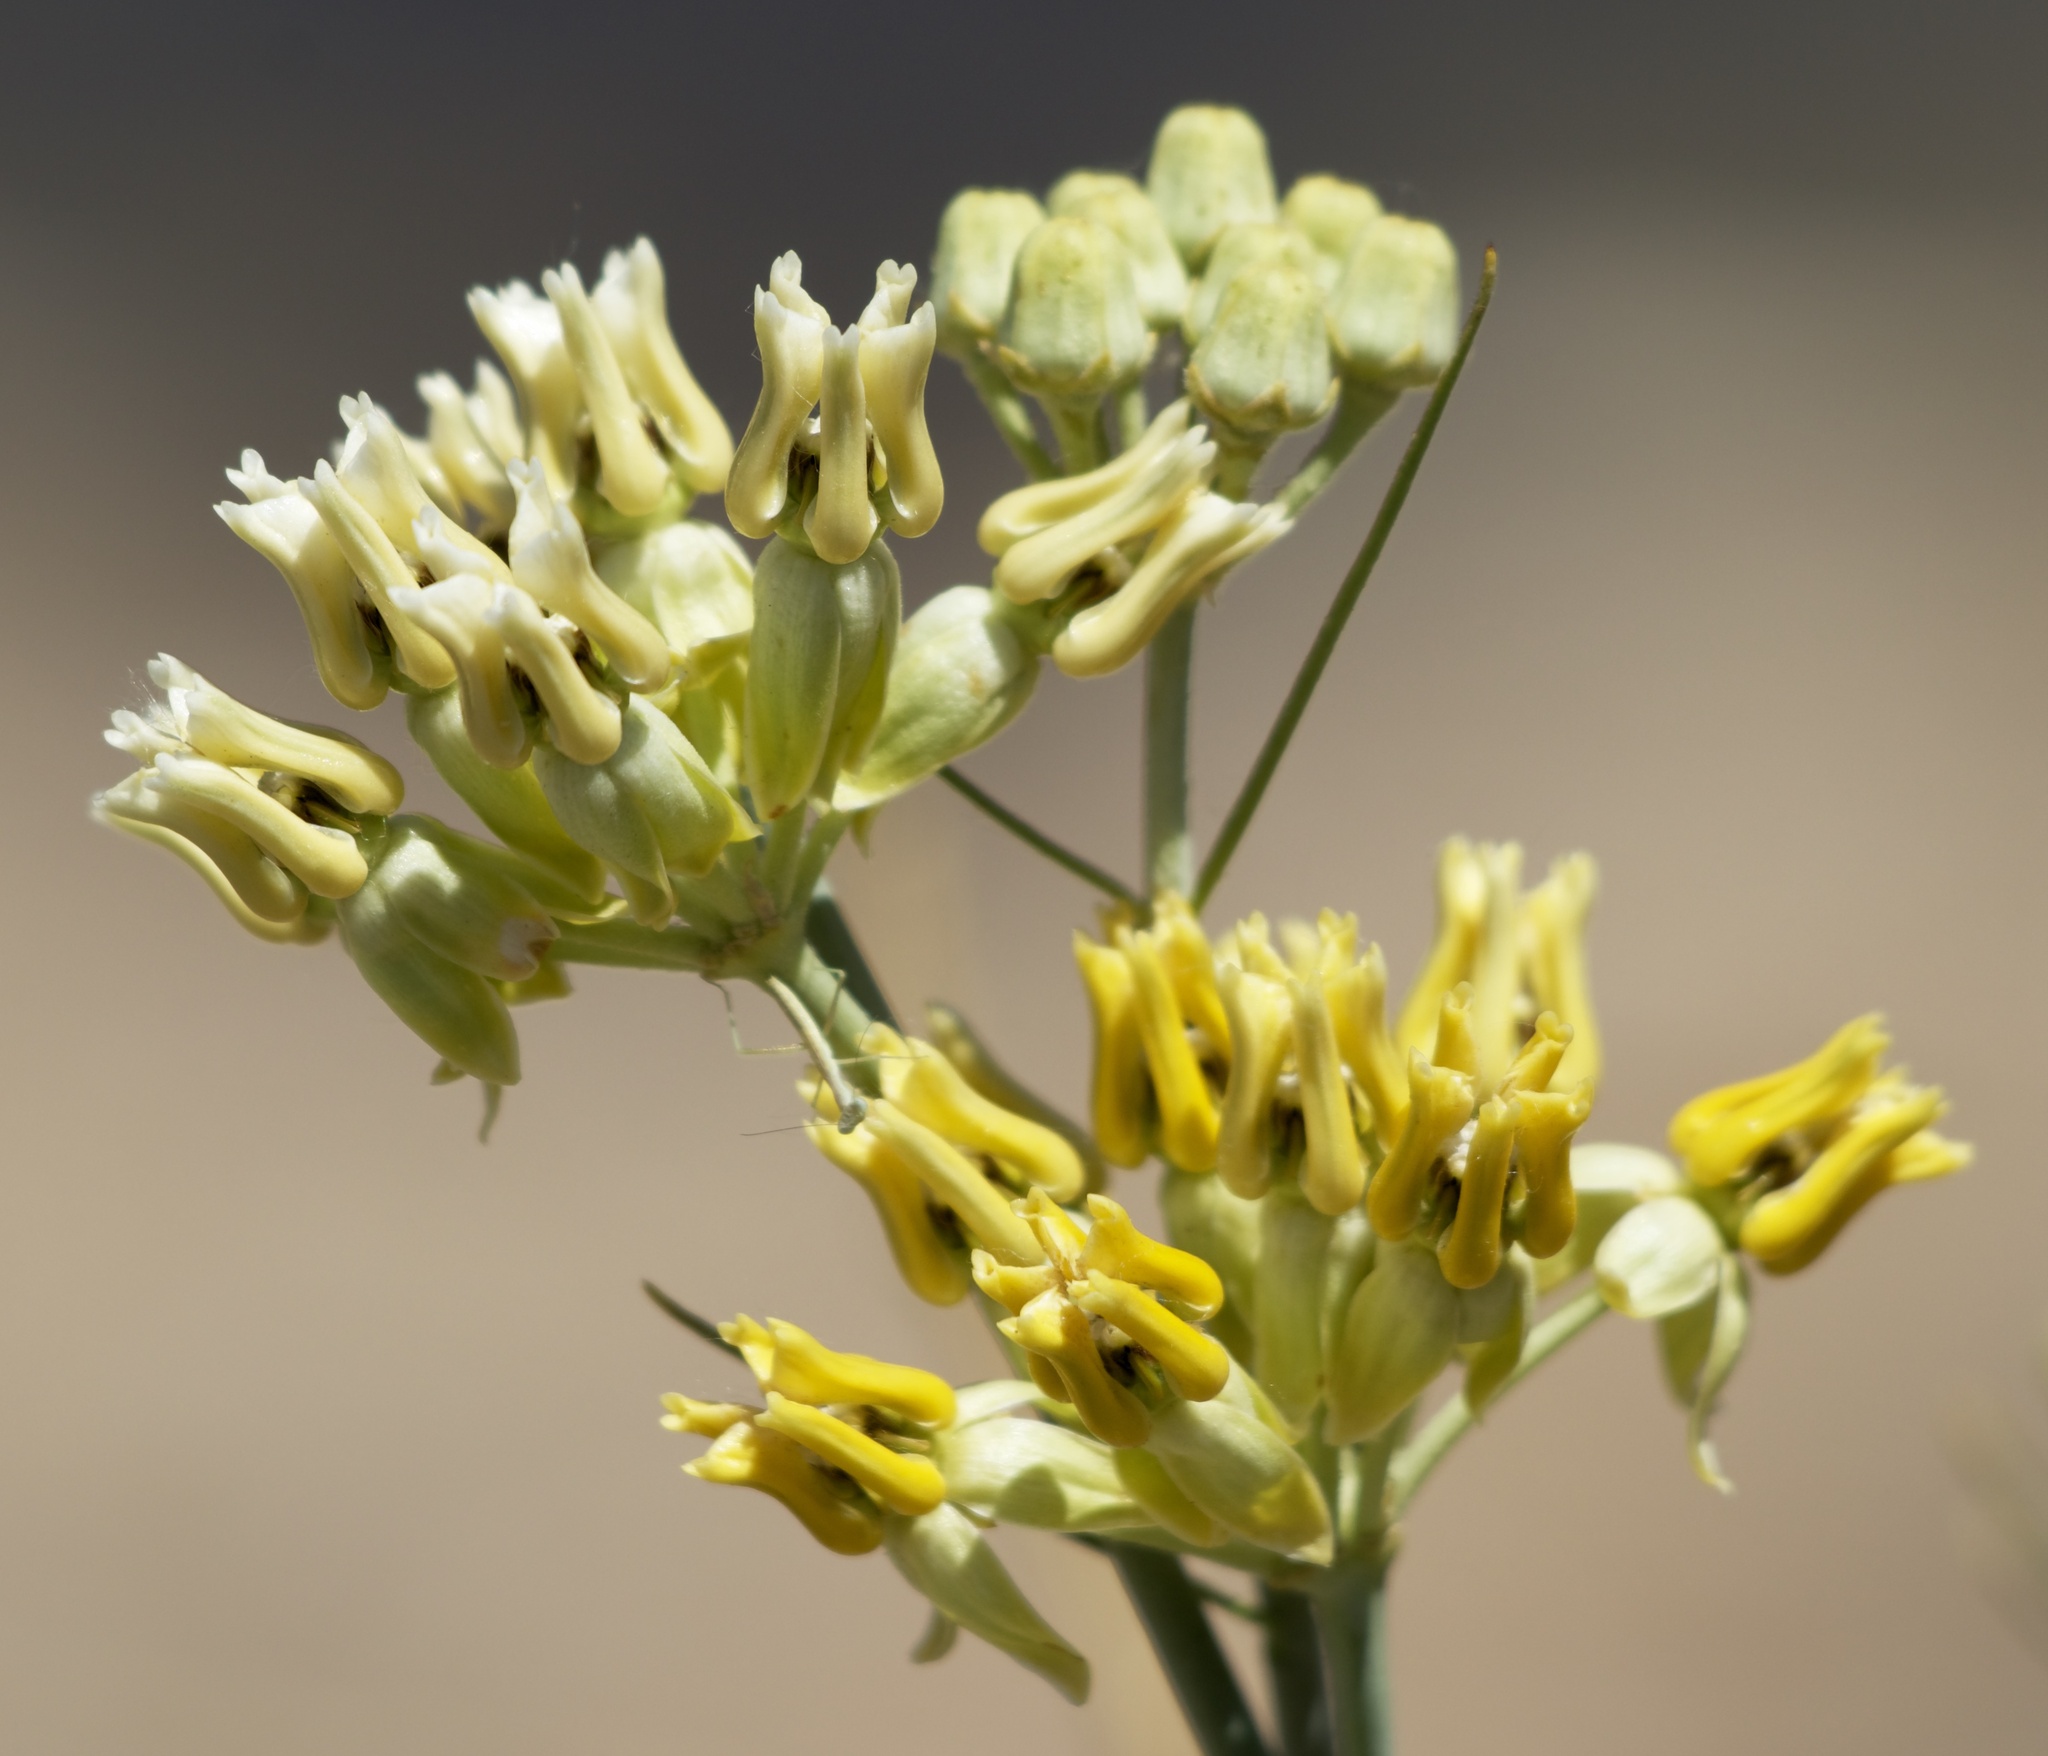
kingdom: Plantae
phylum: Tracheophyta
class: Magnoliopsida
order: Gentianales
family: Apocynaceae
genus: Asclepias
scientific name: Asclepias subulata
